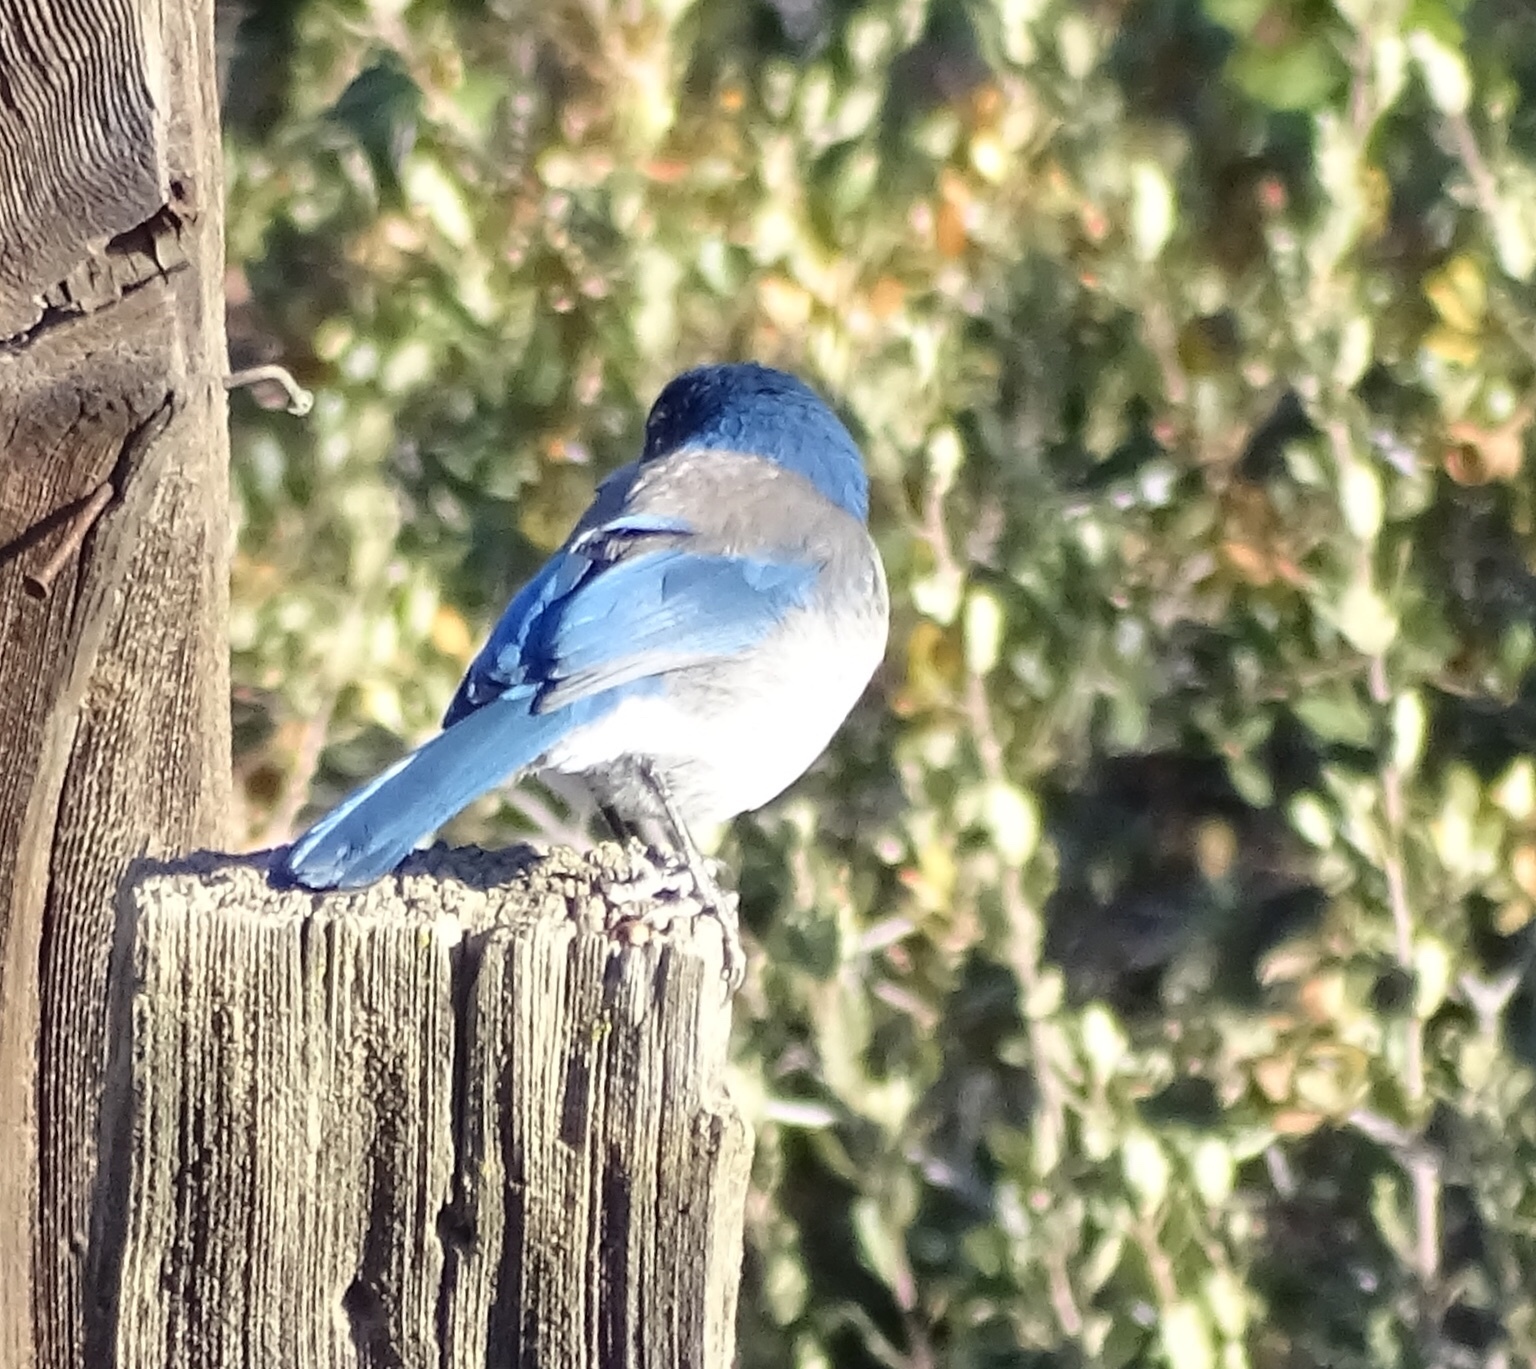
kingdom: Animalia
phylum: Chordata
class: Aves
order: Passeriformes
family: Corvidae
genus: Aphelocoma
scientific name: Aphelocoma californica
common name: California scrub-jay
